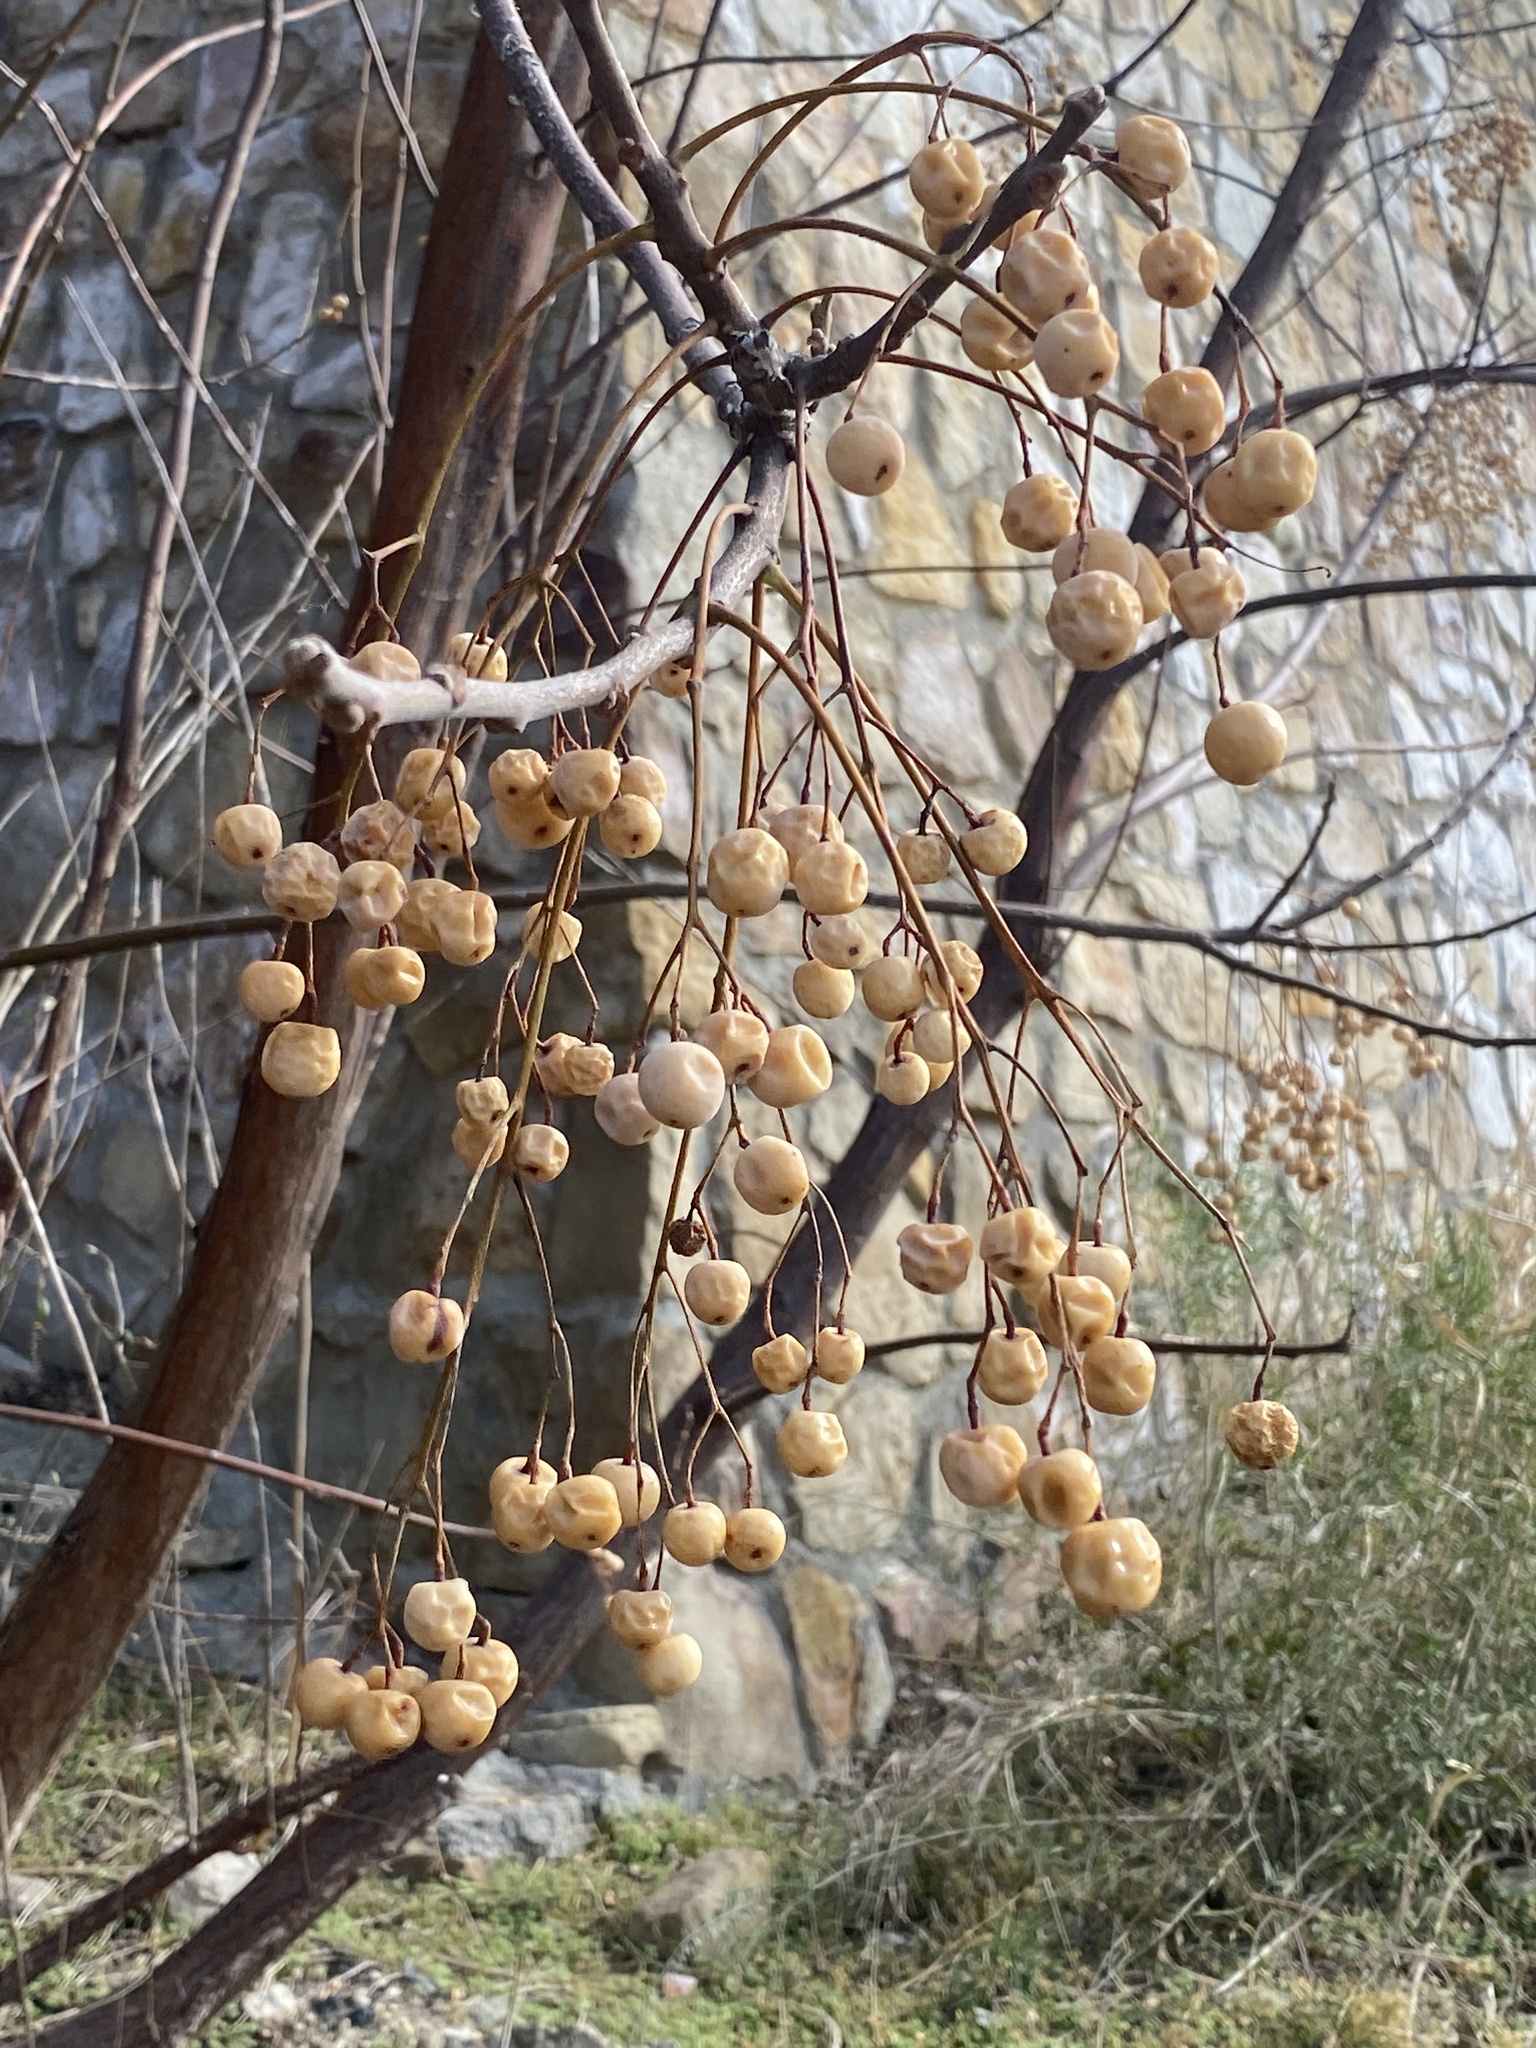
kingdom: Plantae
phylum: Tracheophyta
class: Magnoliopsida
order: Sapindales
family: Meliaceae
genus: Melia
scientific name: Melia azedarach
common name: Chinaberrytree
